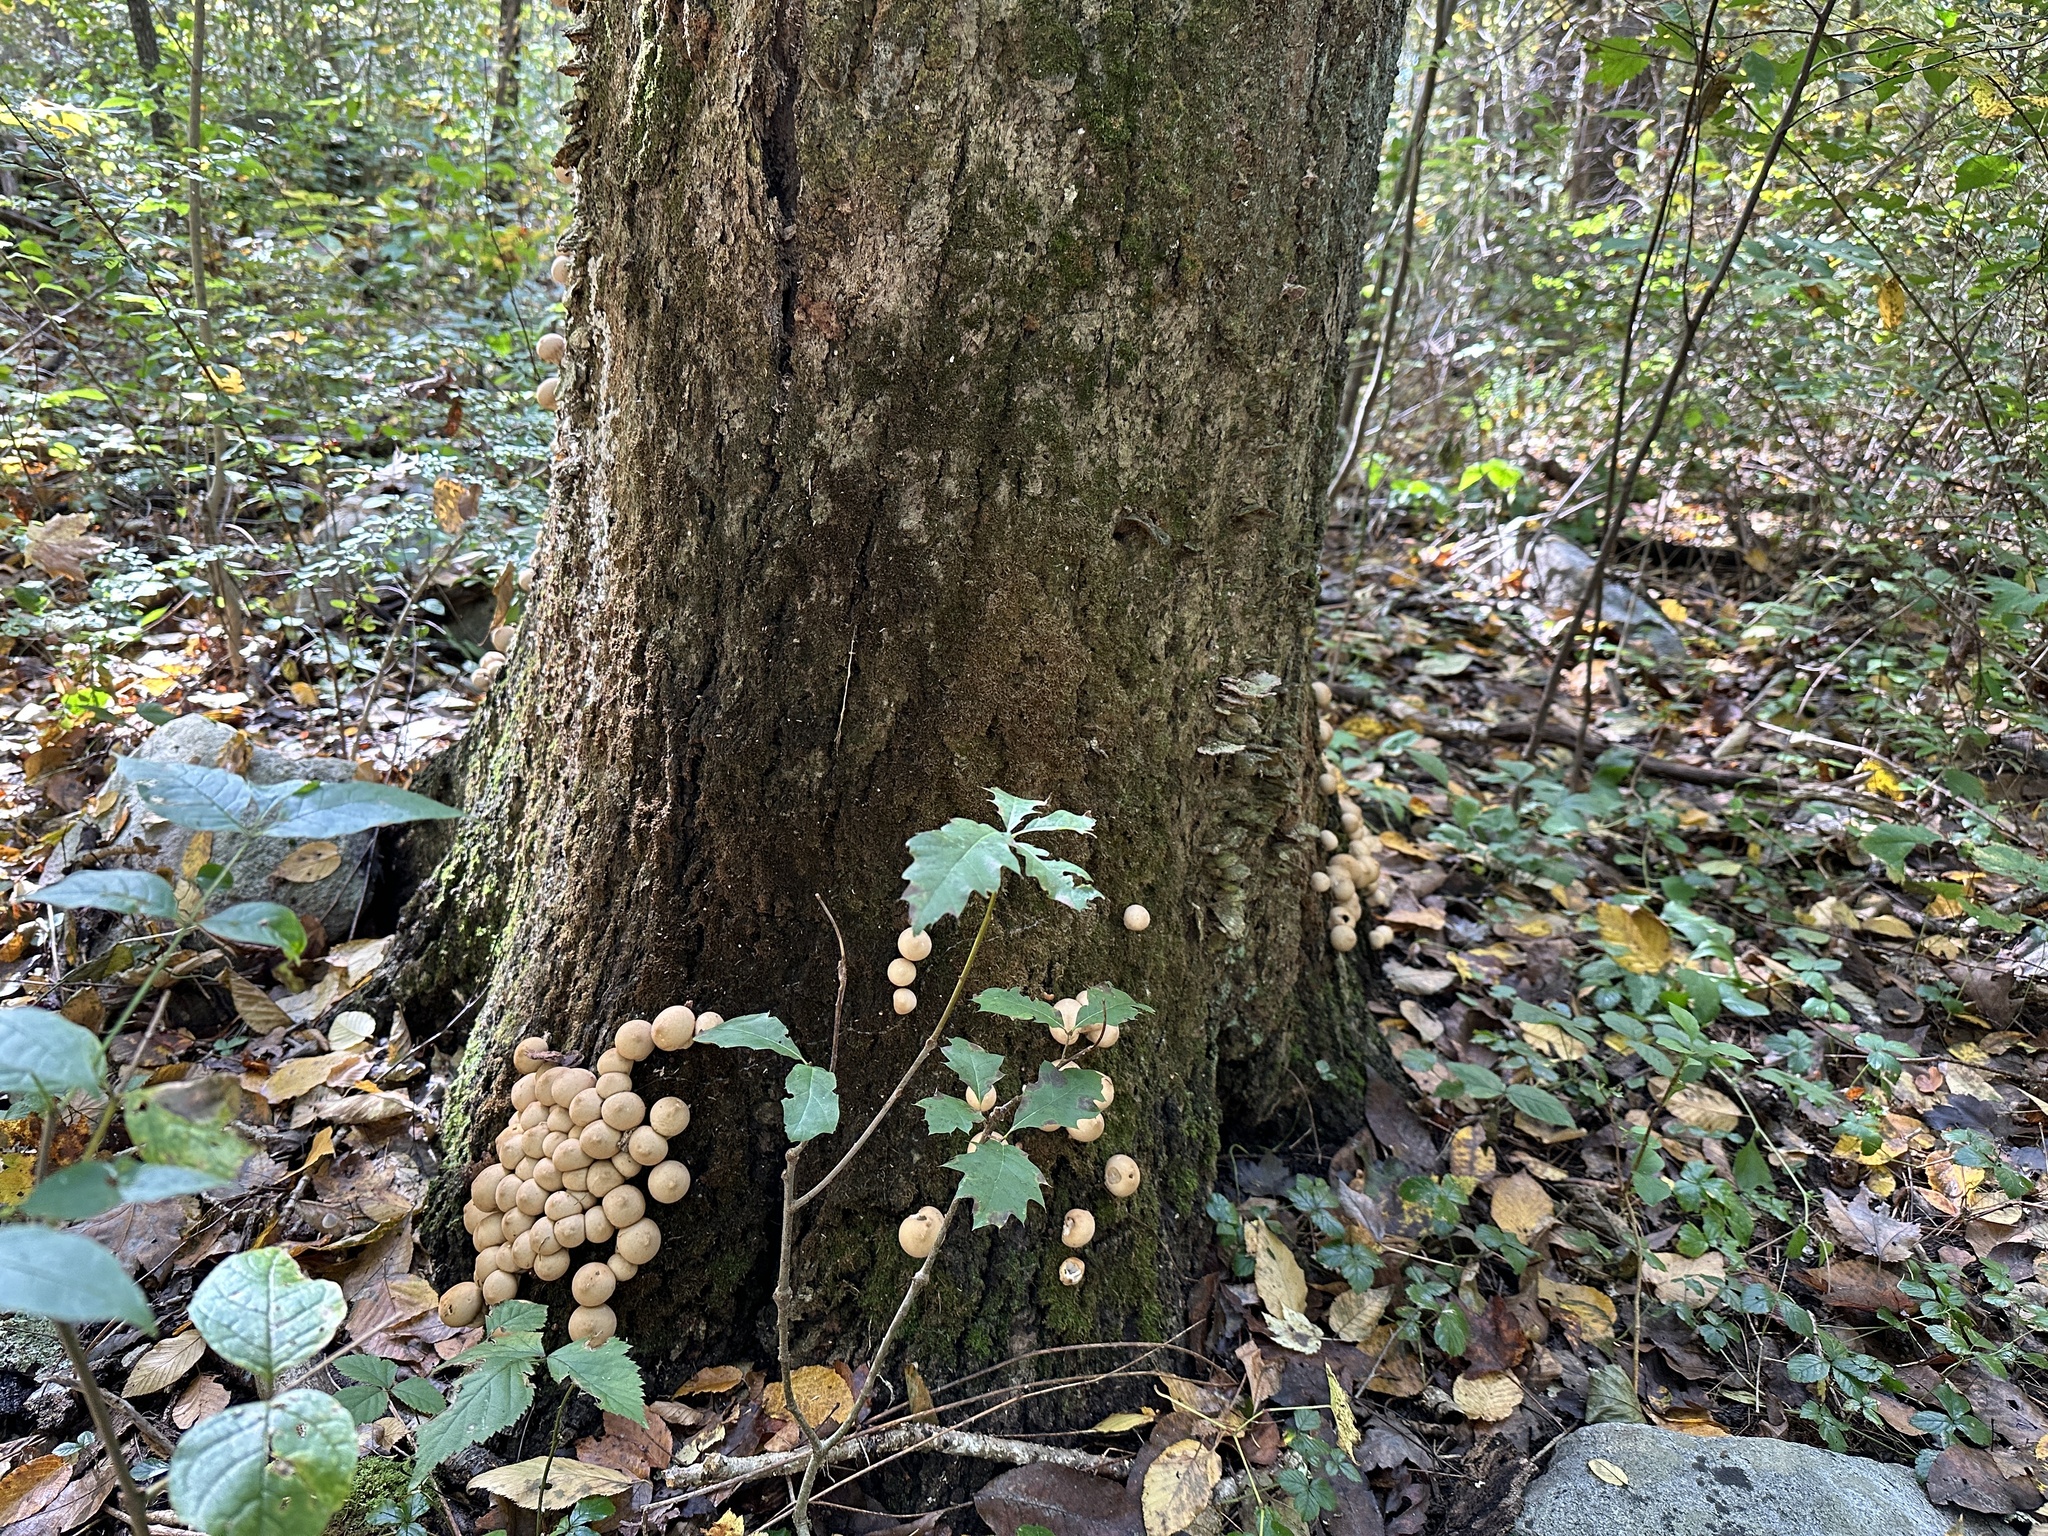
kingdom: Fungi
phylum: Basidiomycota
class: Agaricomycetes
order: Agaricales
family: Lycoperdaceae
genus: Apioperdon
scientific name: Apioperdon pyriforme
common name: Pear-shaped puffball
